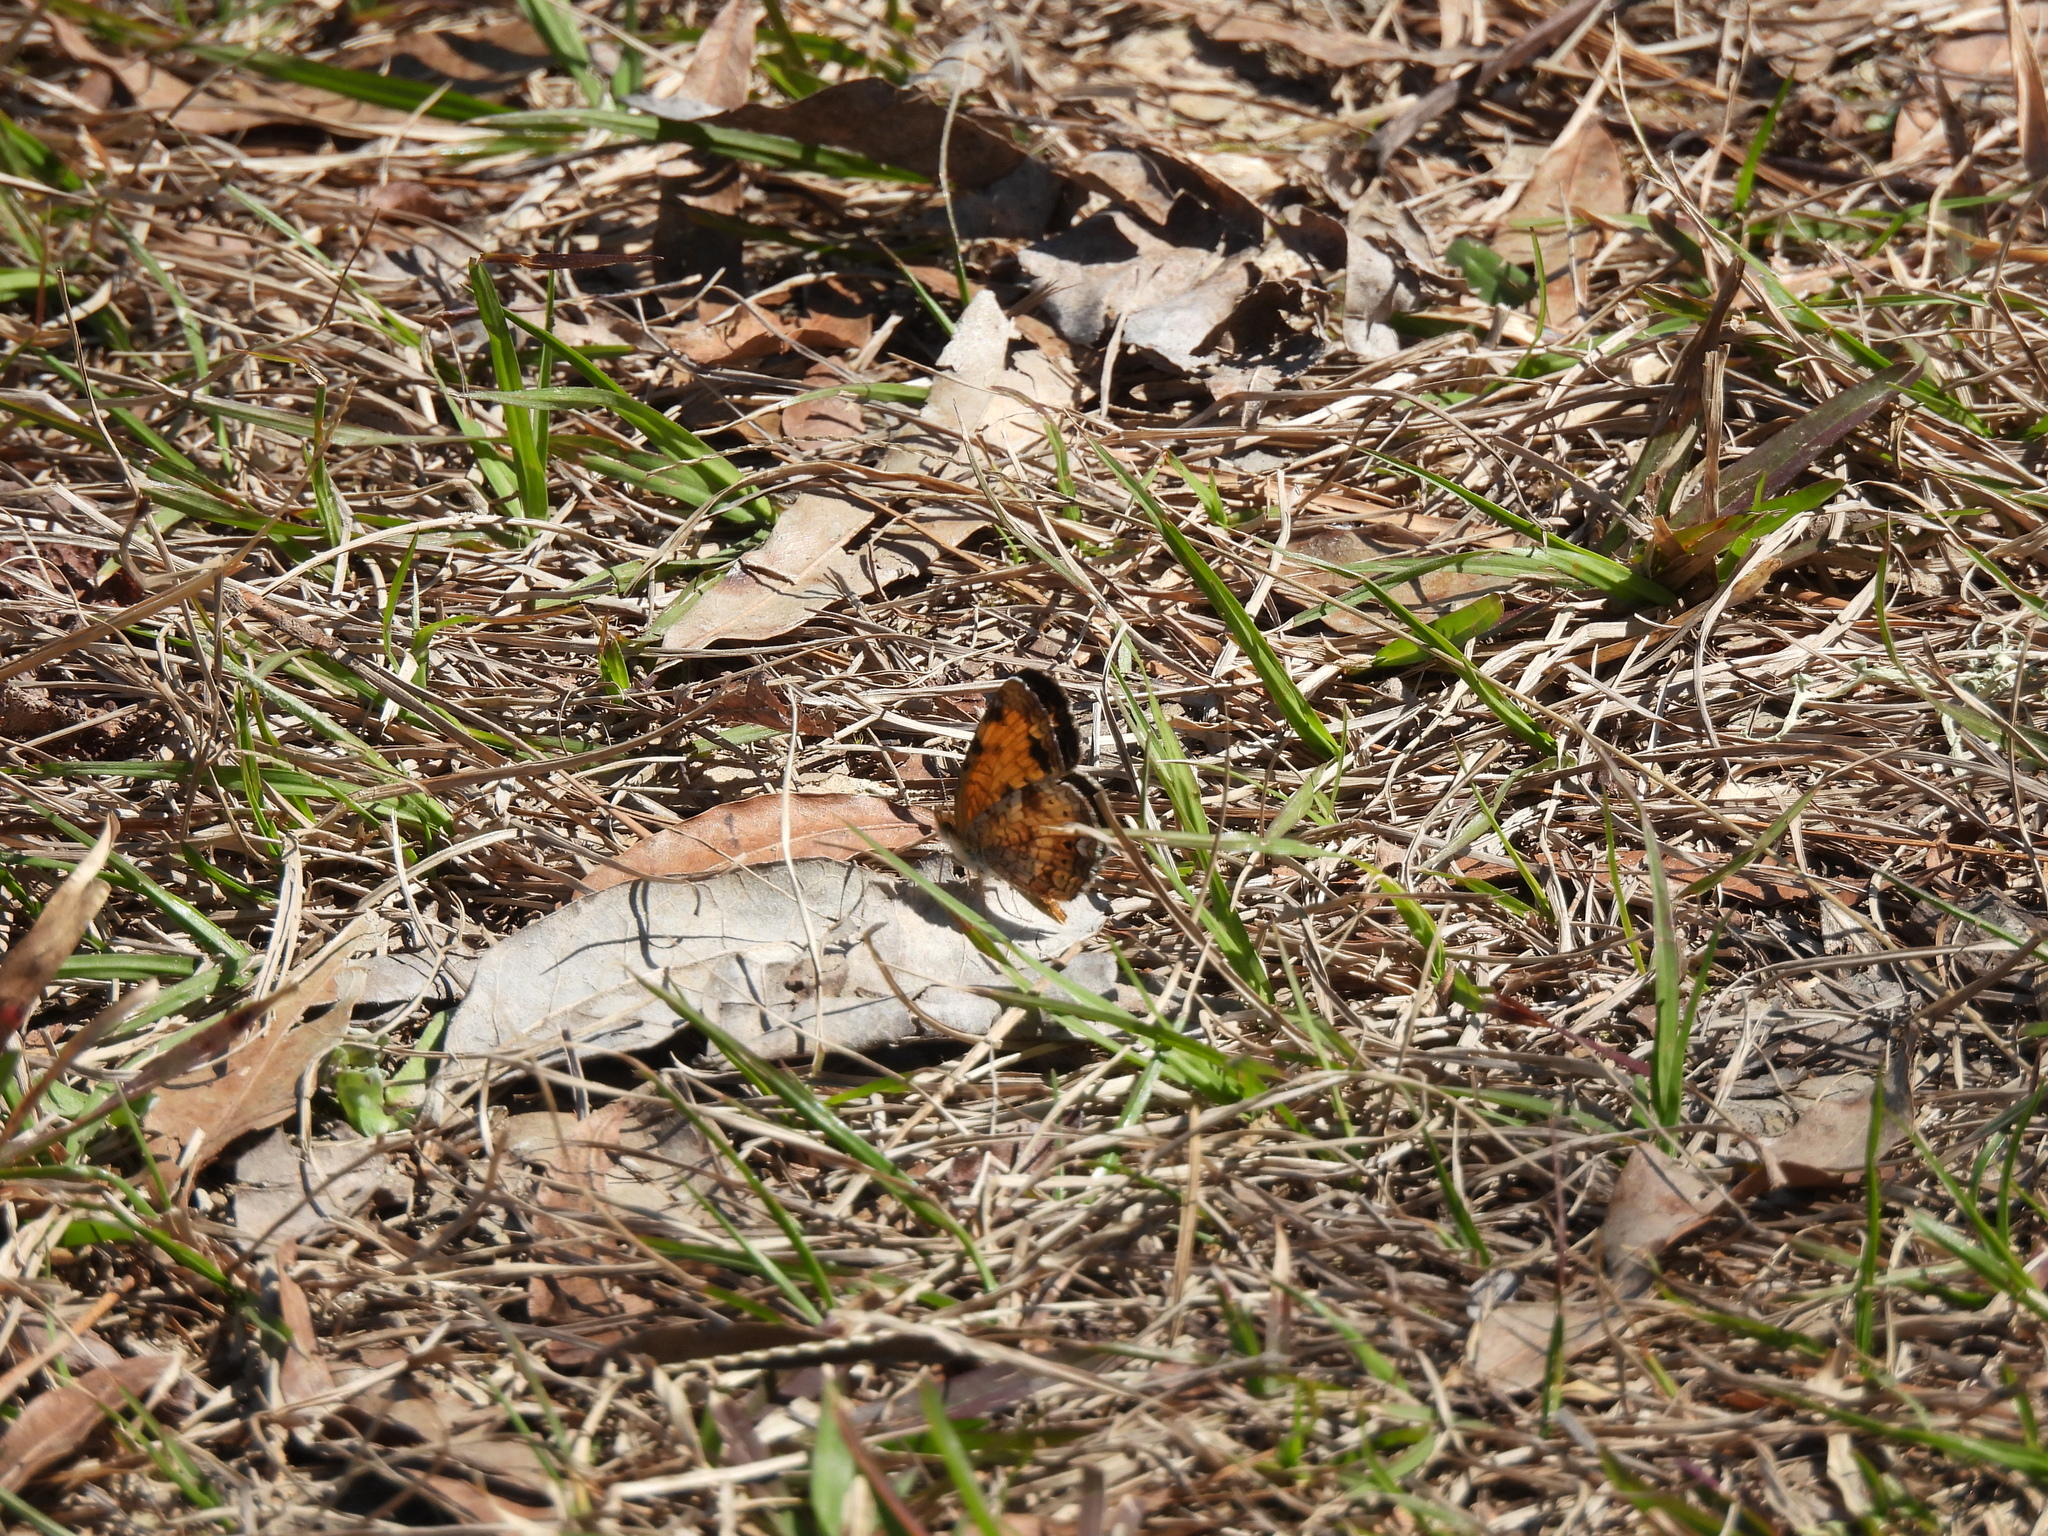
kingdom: Animalia
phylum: Arthropoda
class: Insecta
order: Lepidoptera
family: Nymphalidae
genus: Phyciodes
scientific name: Phyciodes tharos
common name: Pearl crescent
